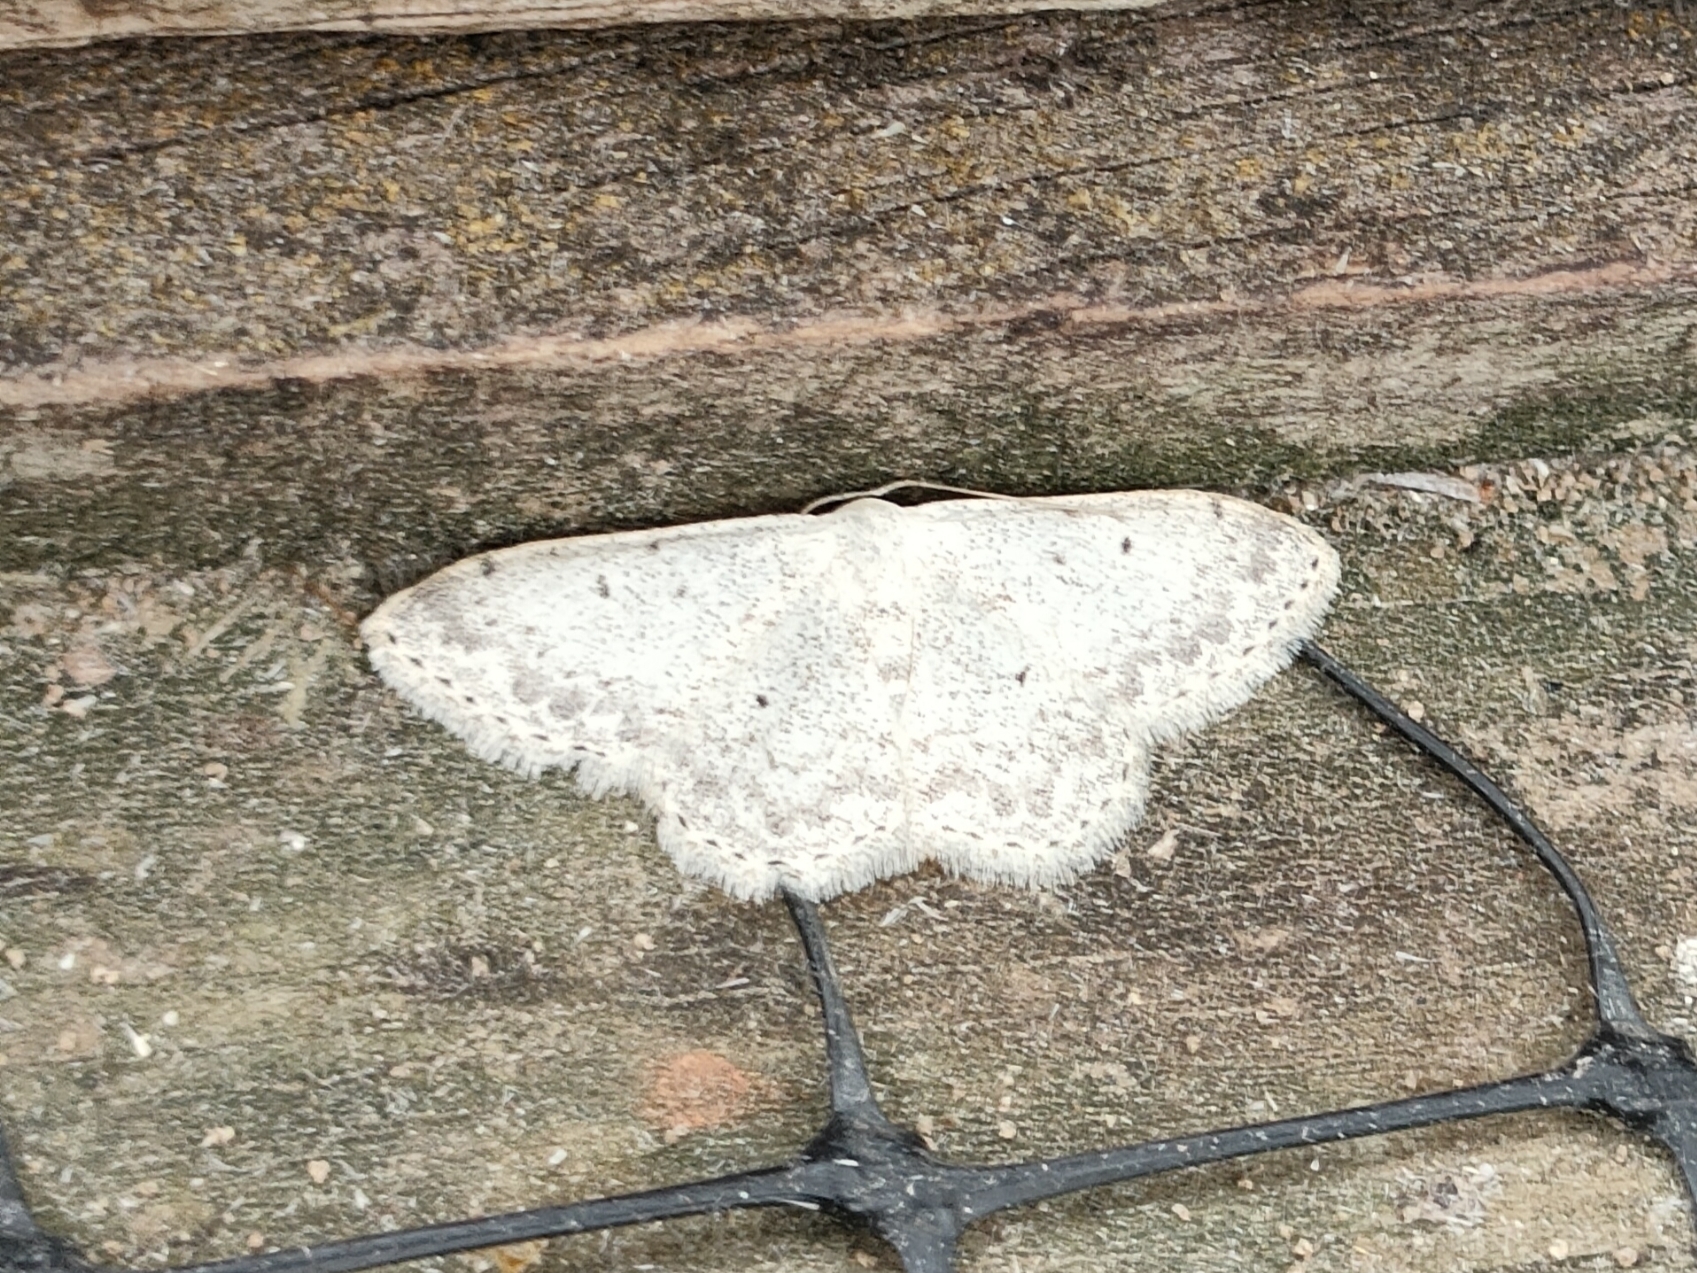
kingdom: Animalia
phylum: Arthropoda
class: Insecta
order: Lepidoptera
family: Geometridae
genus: Scopula
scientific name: Scopula marginepunctata
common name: Mullein wave
